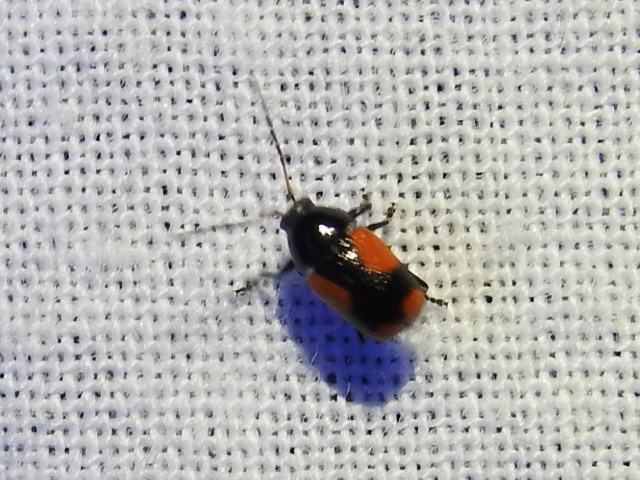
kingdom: Animalia
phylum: Arthropoda
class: Insecta
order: Coleoptera
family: Chrysomelidae
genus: Cryptocephalus
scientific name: Cryptocephalus quadruplex
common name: Black and red sumac leaf beetle
